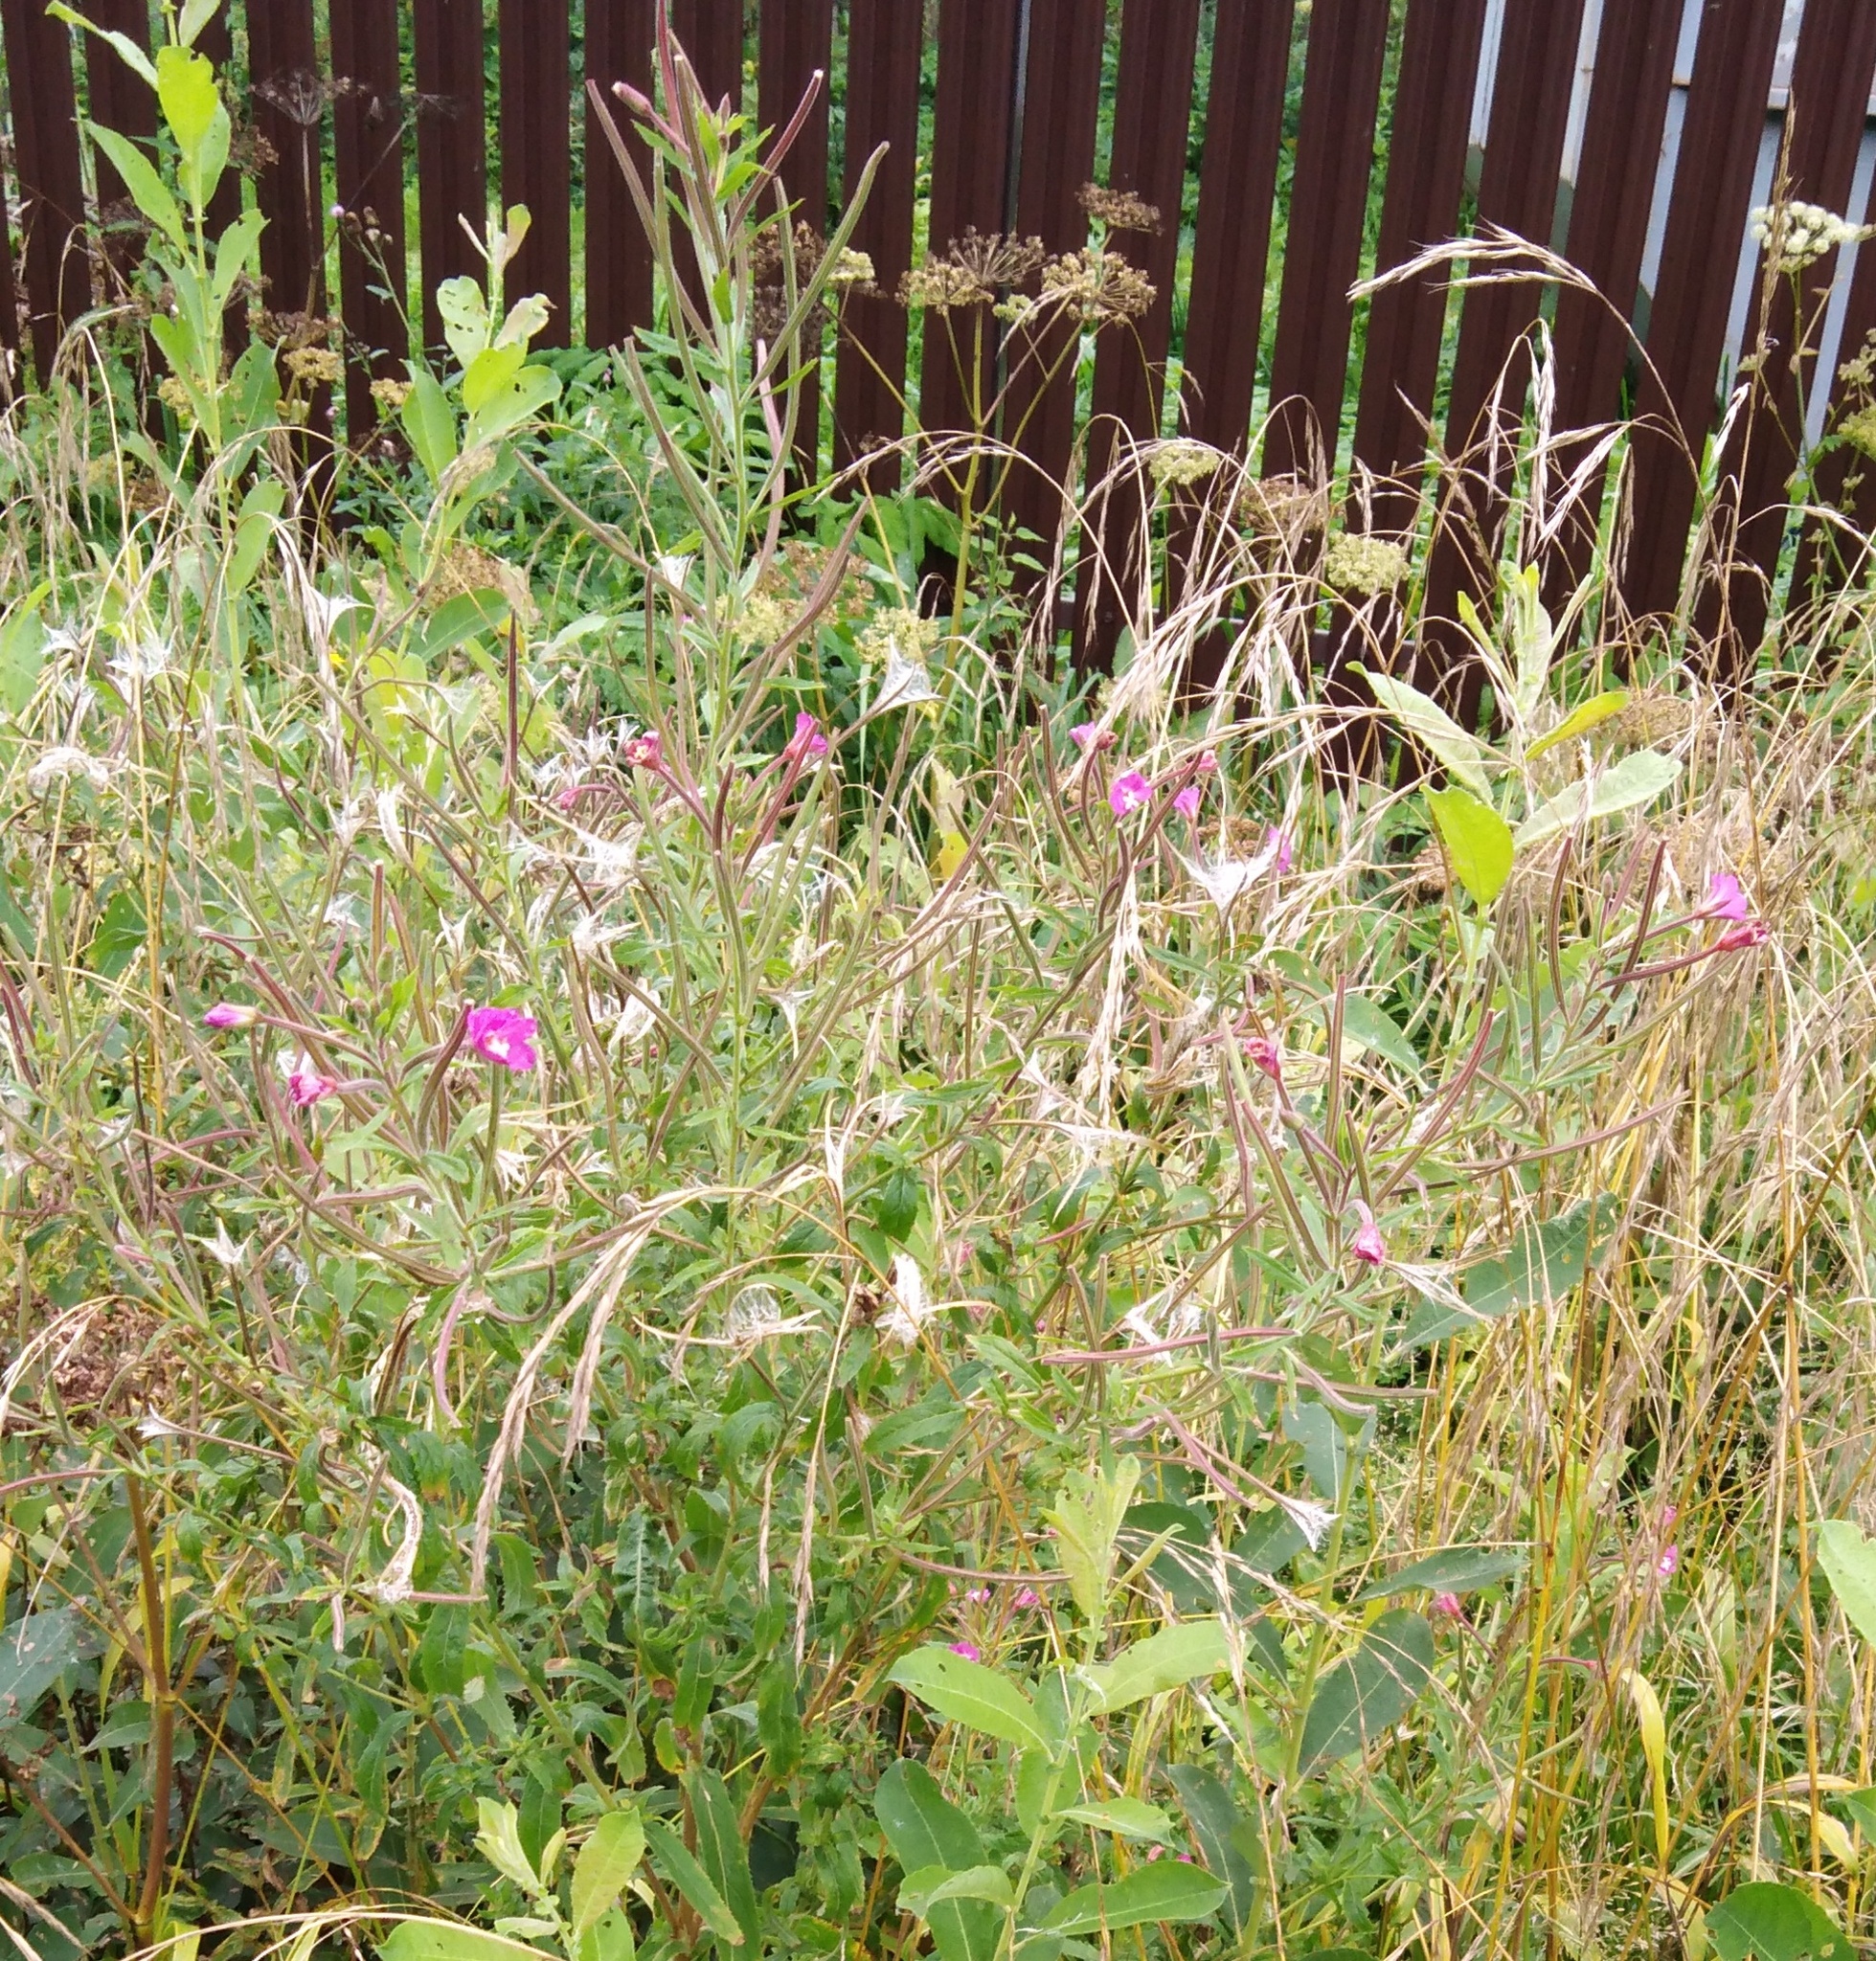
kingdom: Plantae
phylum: Tracheophyta
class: Magnoliopsida
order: Myrtales
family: Onagraceae
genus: Epilobium
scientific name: Epilobium hirsutum
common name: Great willowherb
